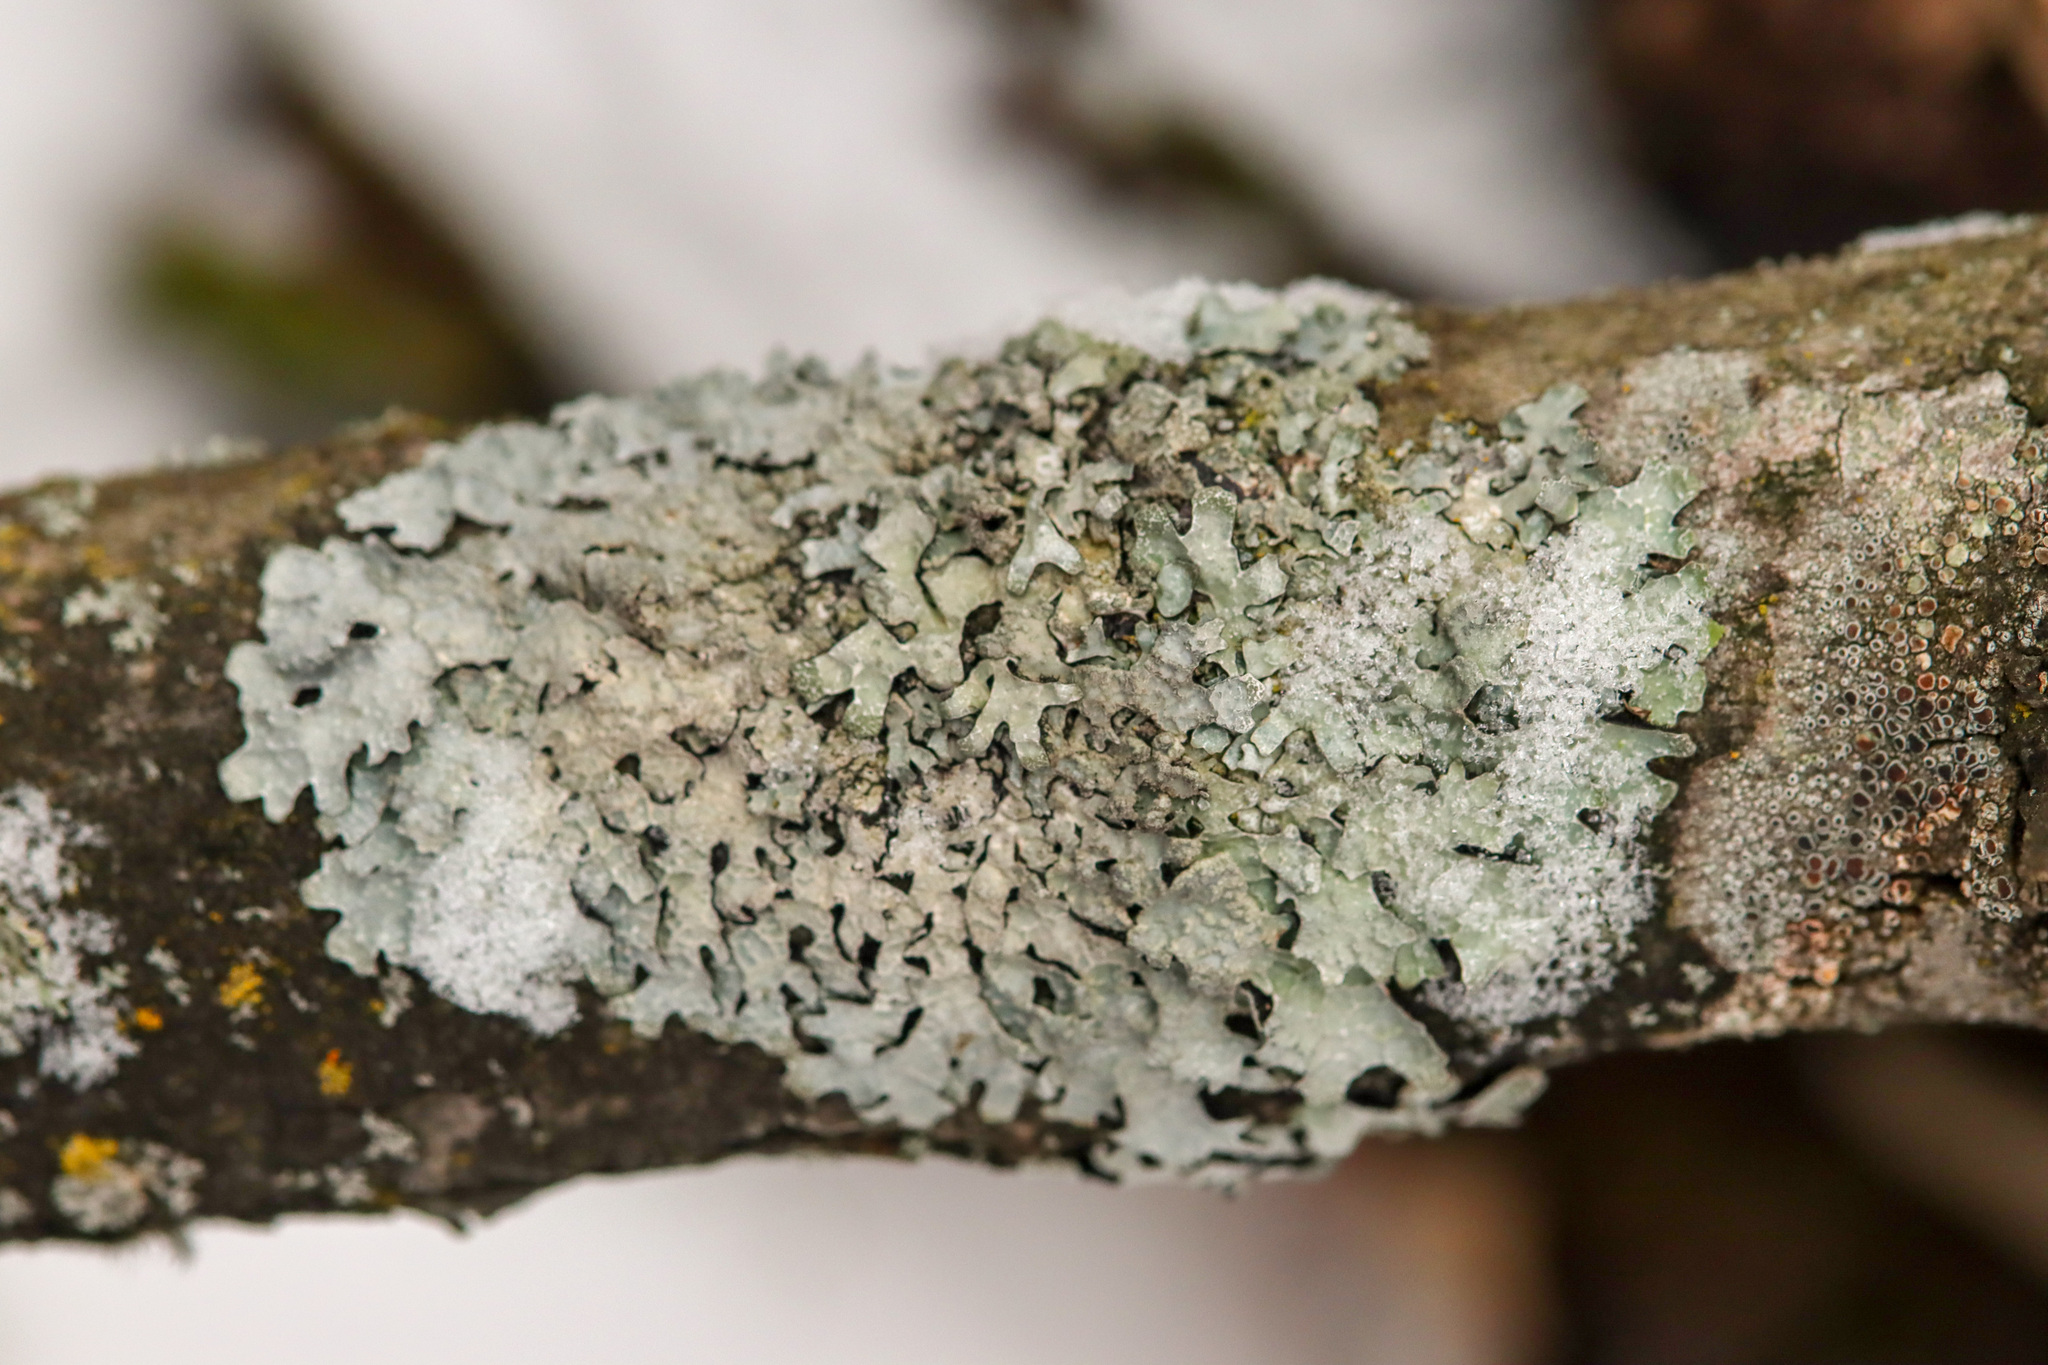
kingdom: Fungi
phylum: Ascomycota
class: Lecanoromycetes
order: Lecanorales
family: Parmeliaceae
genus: Parmelia
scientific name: Parmelia sulcata
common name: Netted shield lichen
